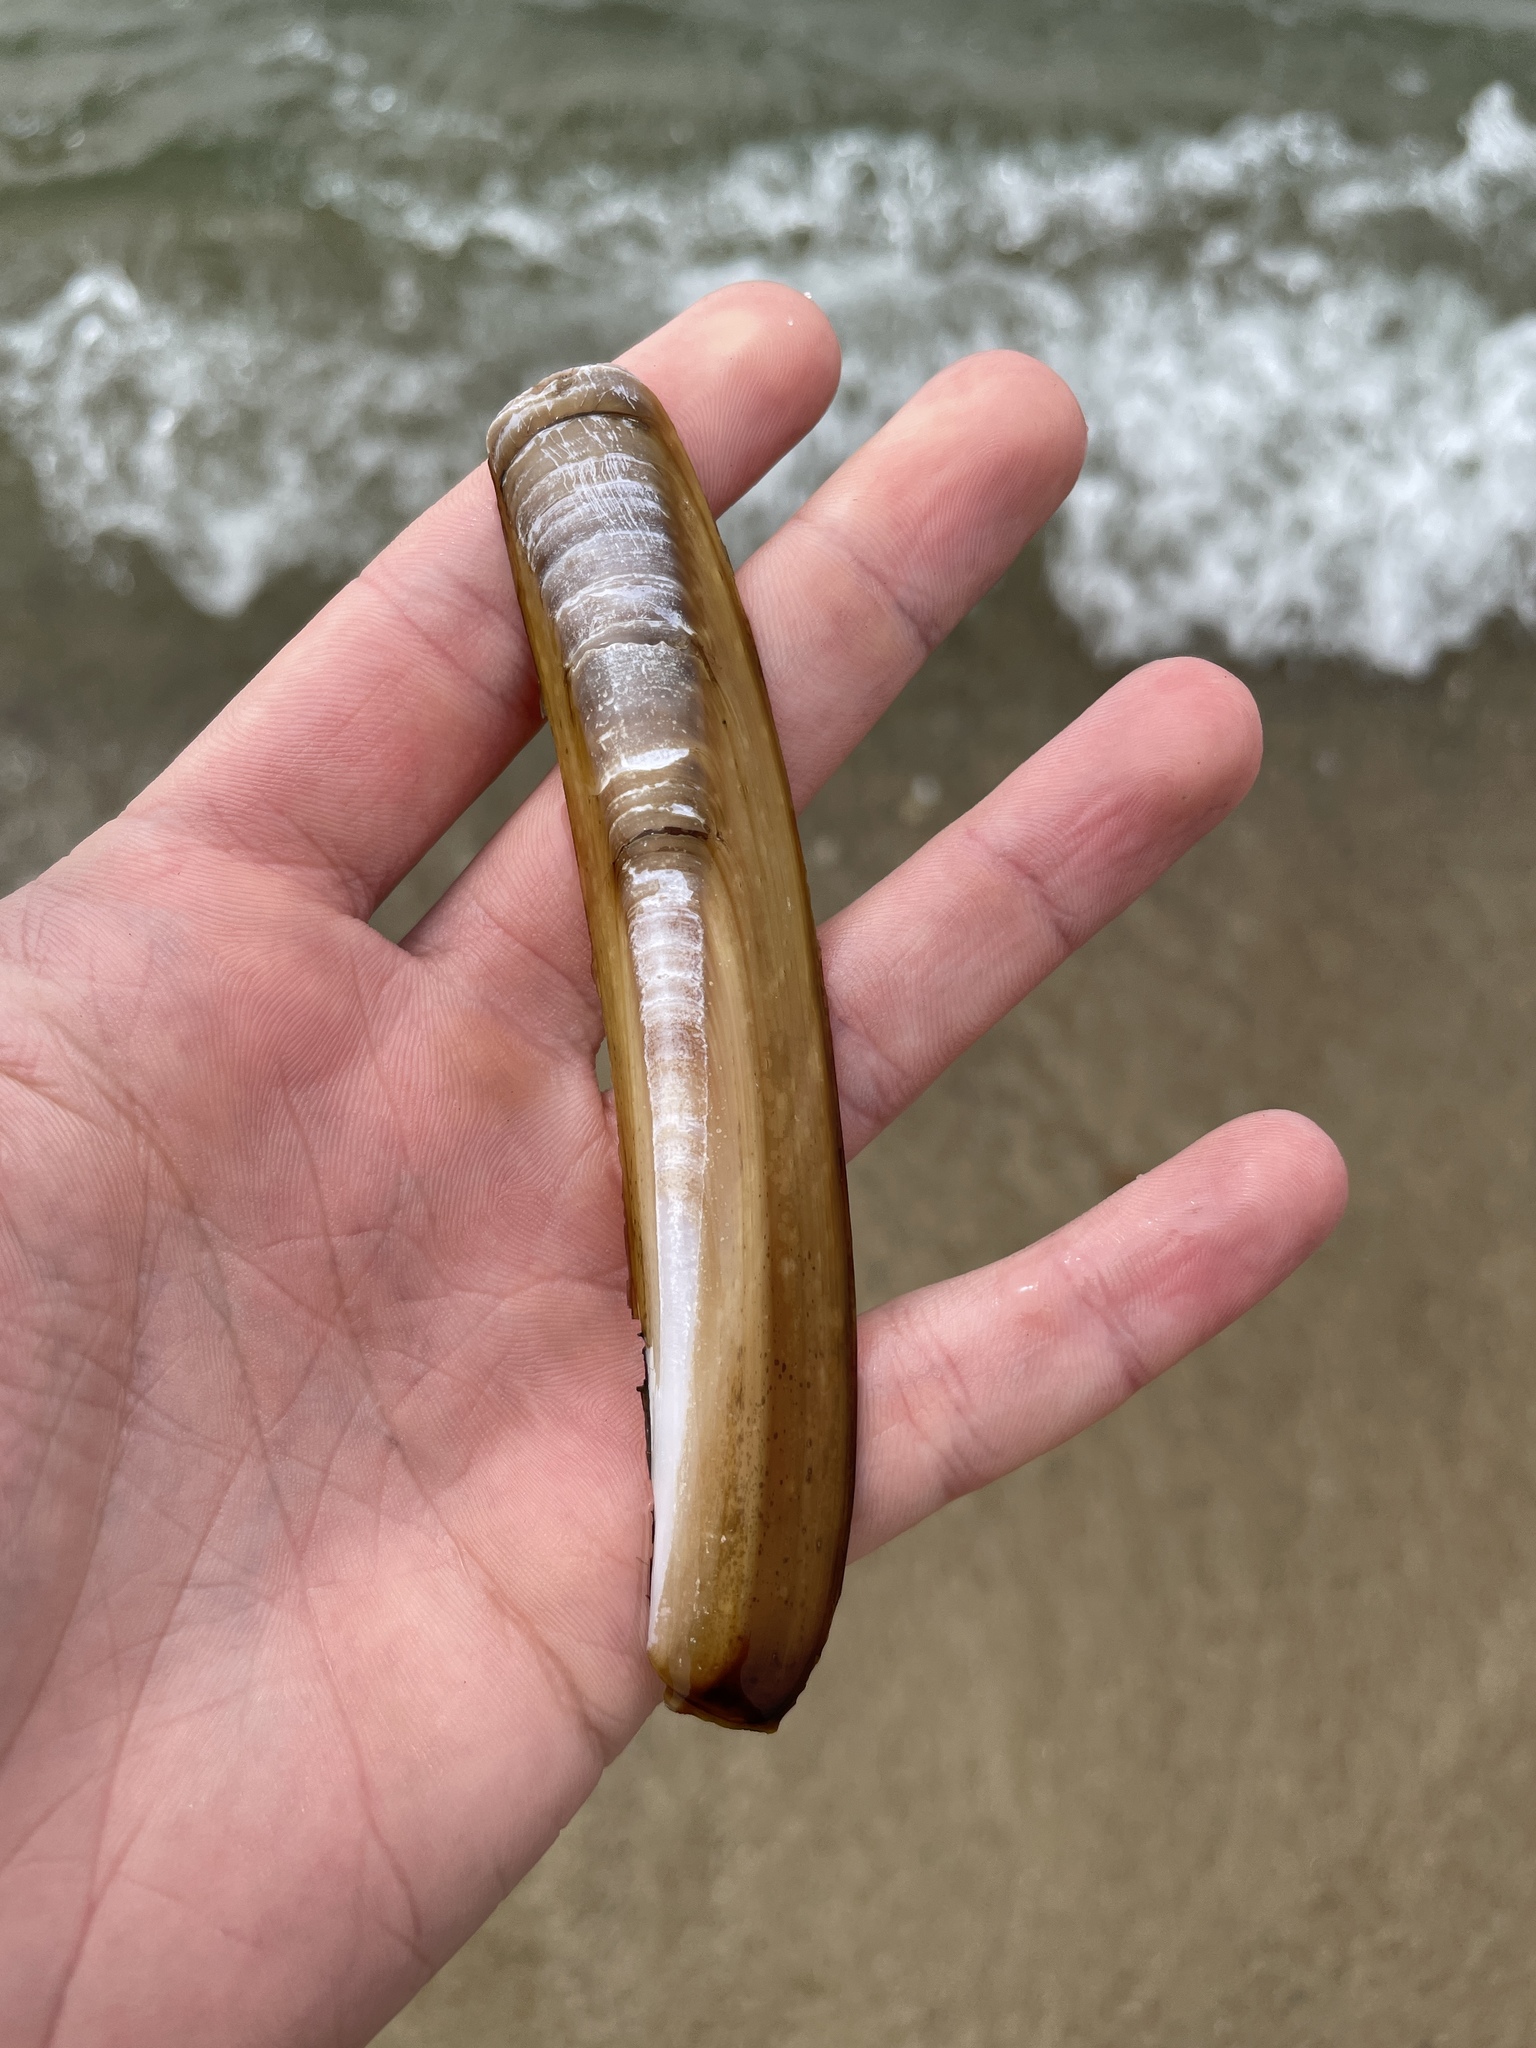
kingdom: Animalia
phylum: Mollusca
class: Bivalvia
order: Adapedonta
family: Pharidae
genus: Ensis
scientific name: Ensis leei
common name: American jack knife clam
